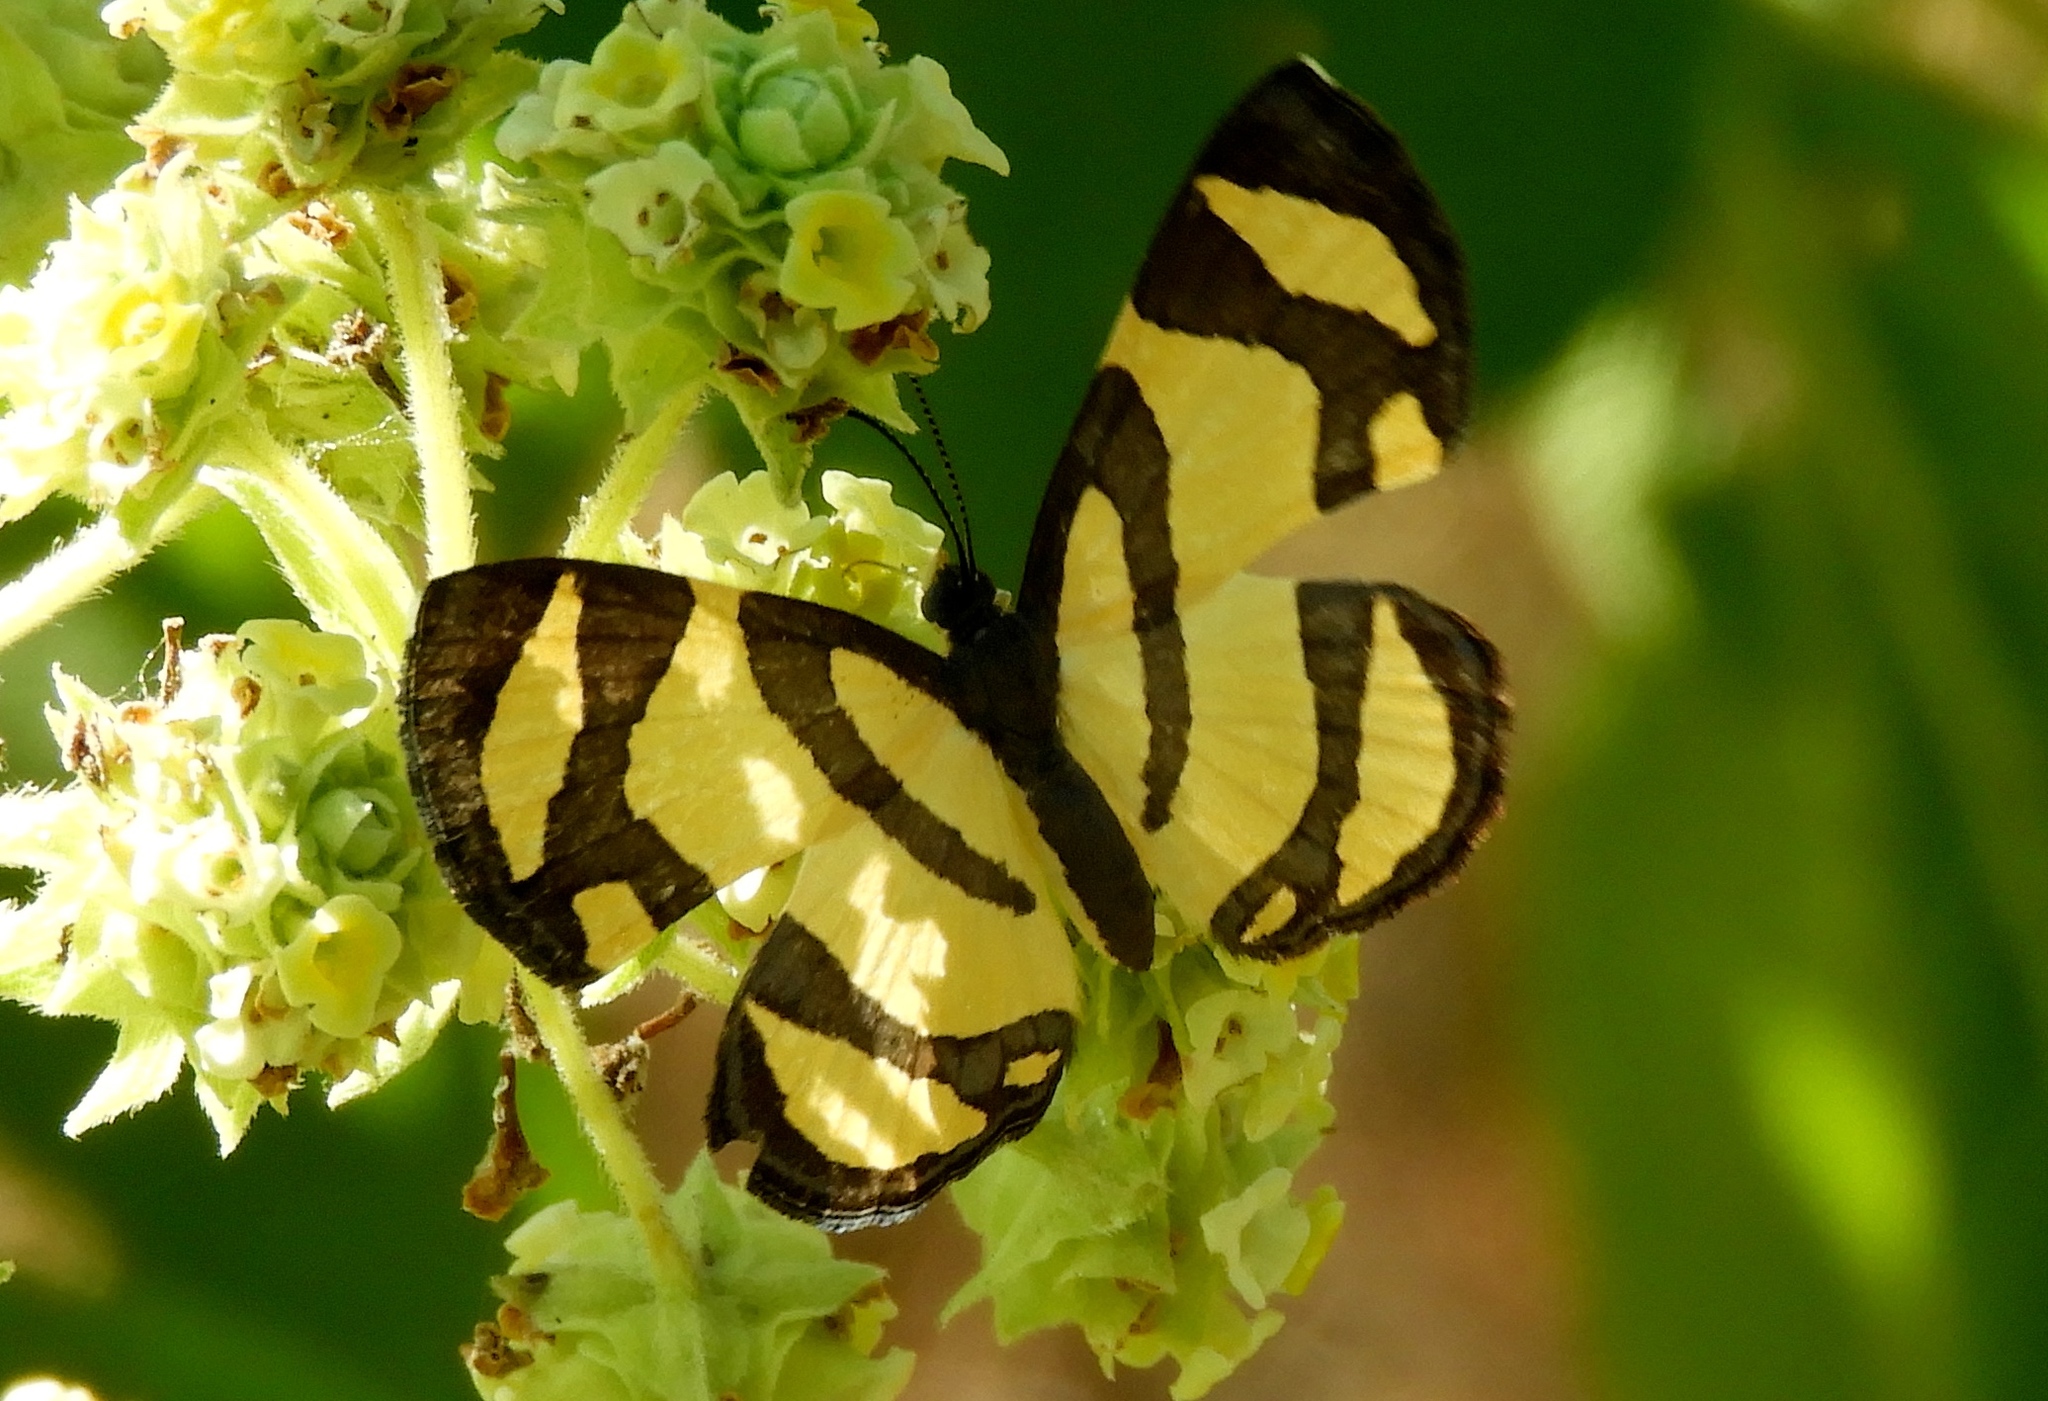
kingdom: Animalia
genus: Baeotis
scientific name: Baeotis zonata
